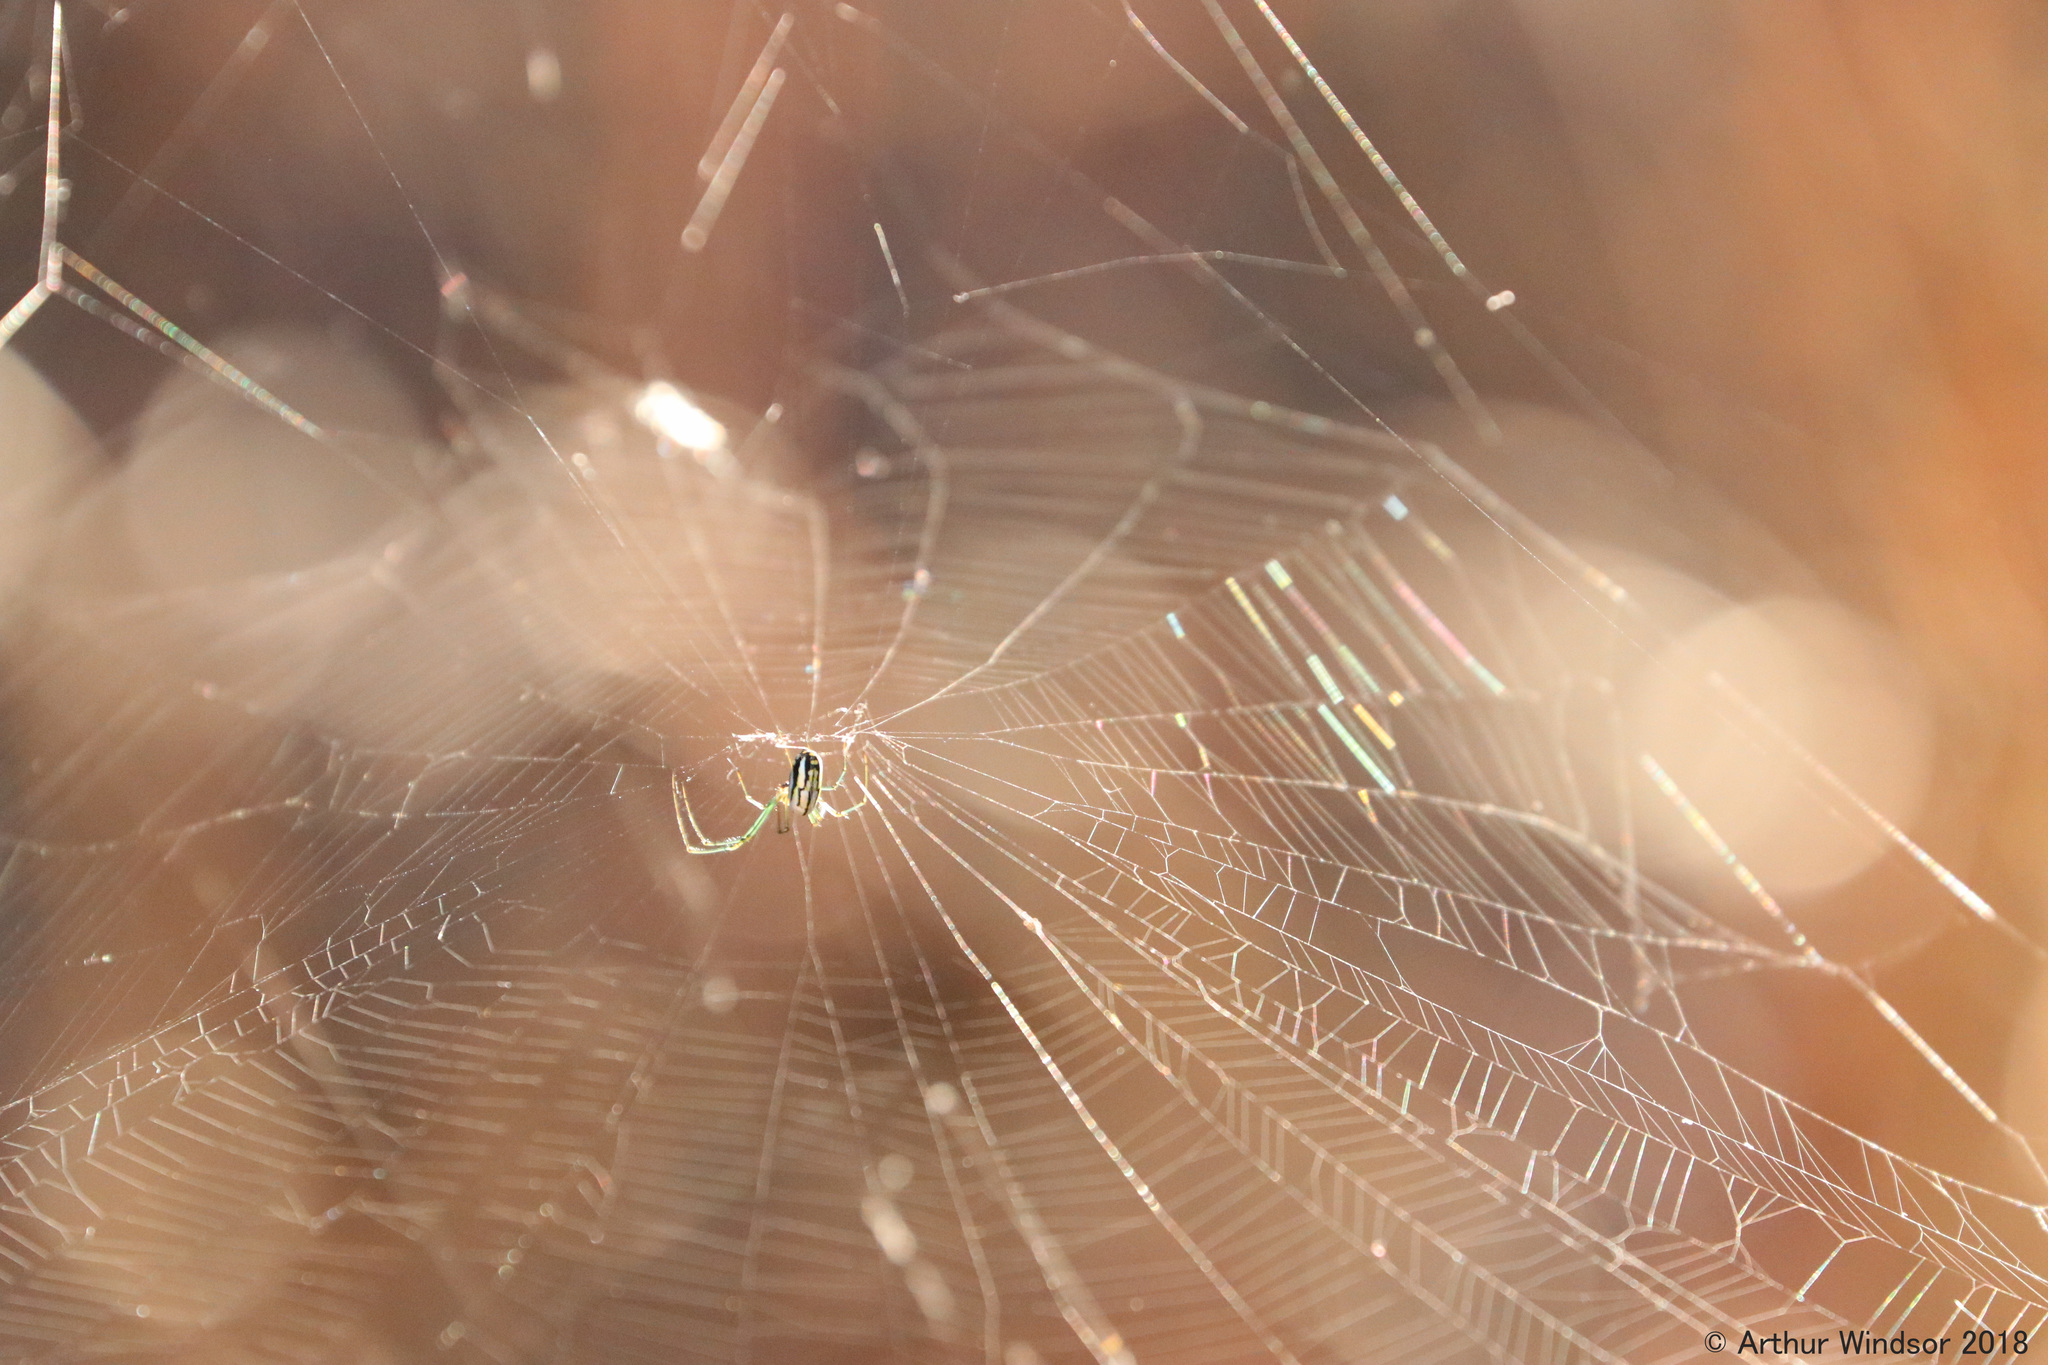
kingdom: Animalia
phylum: Arthropoda
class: Arachnida
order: Araneae
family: Tetragnathidae
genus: Leucauge
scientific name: Leucauge argyra
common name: Longjawed orb weavers
